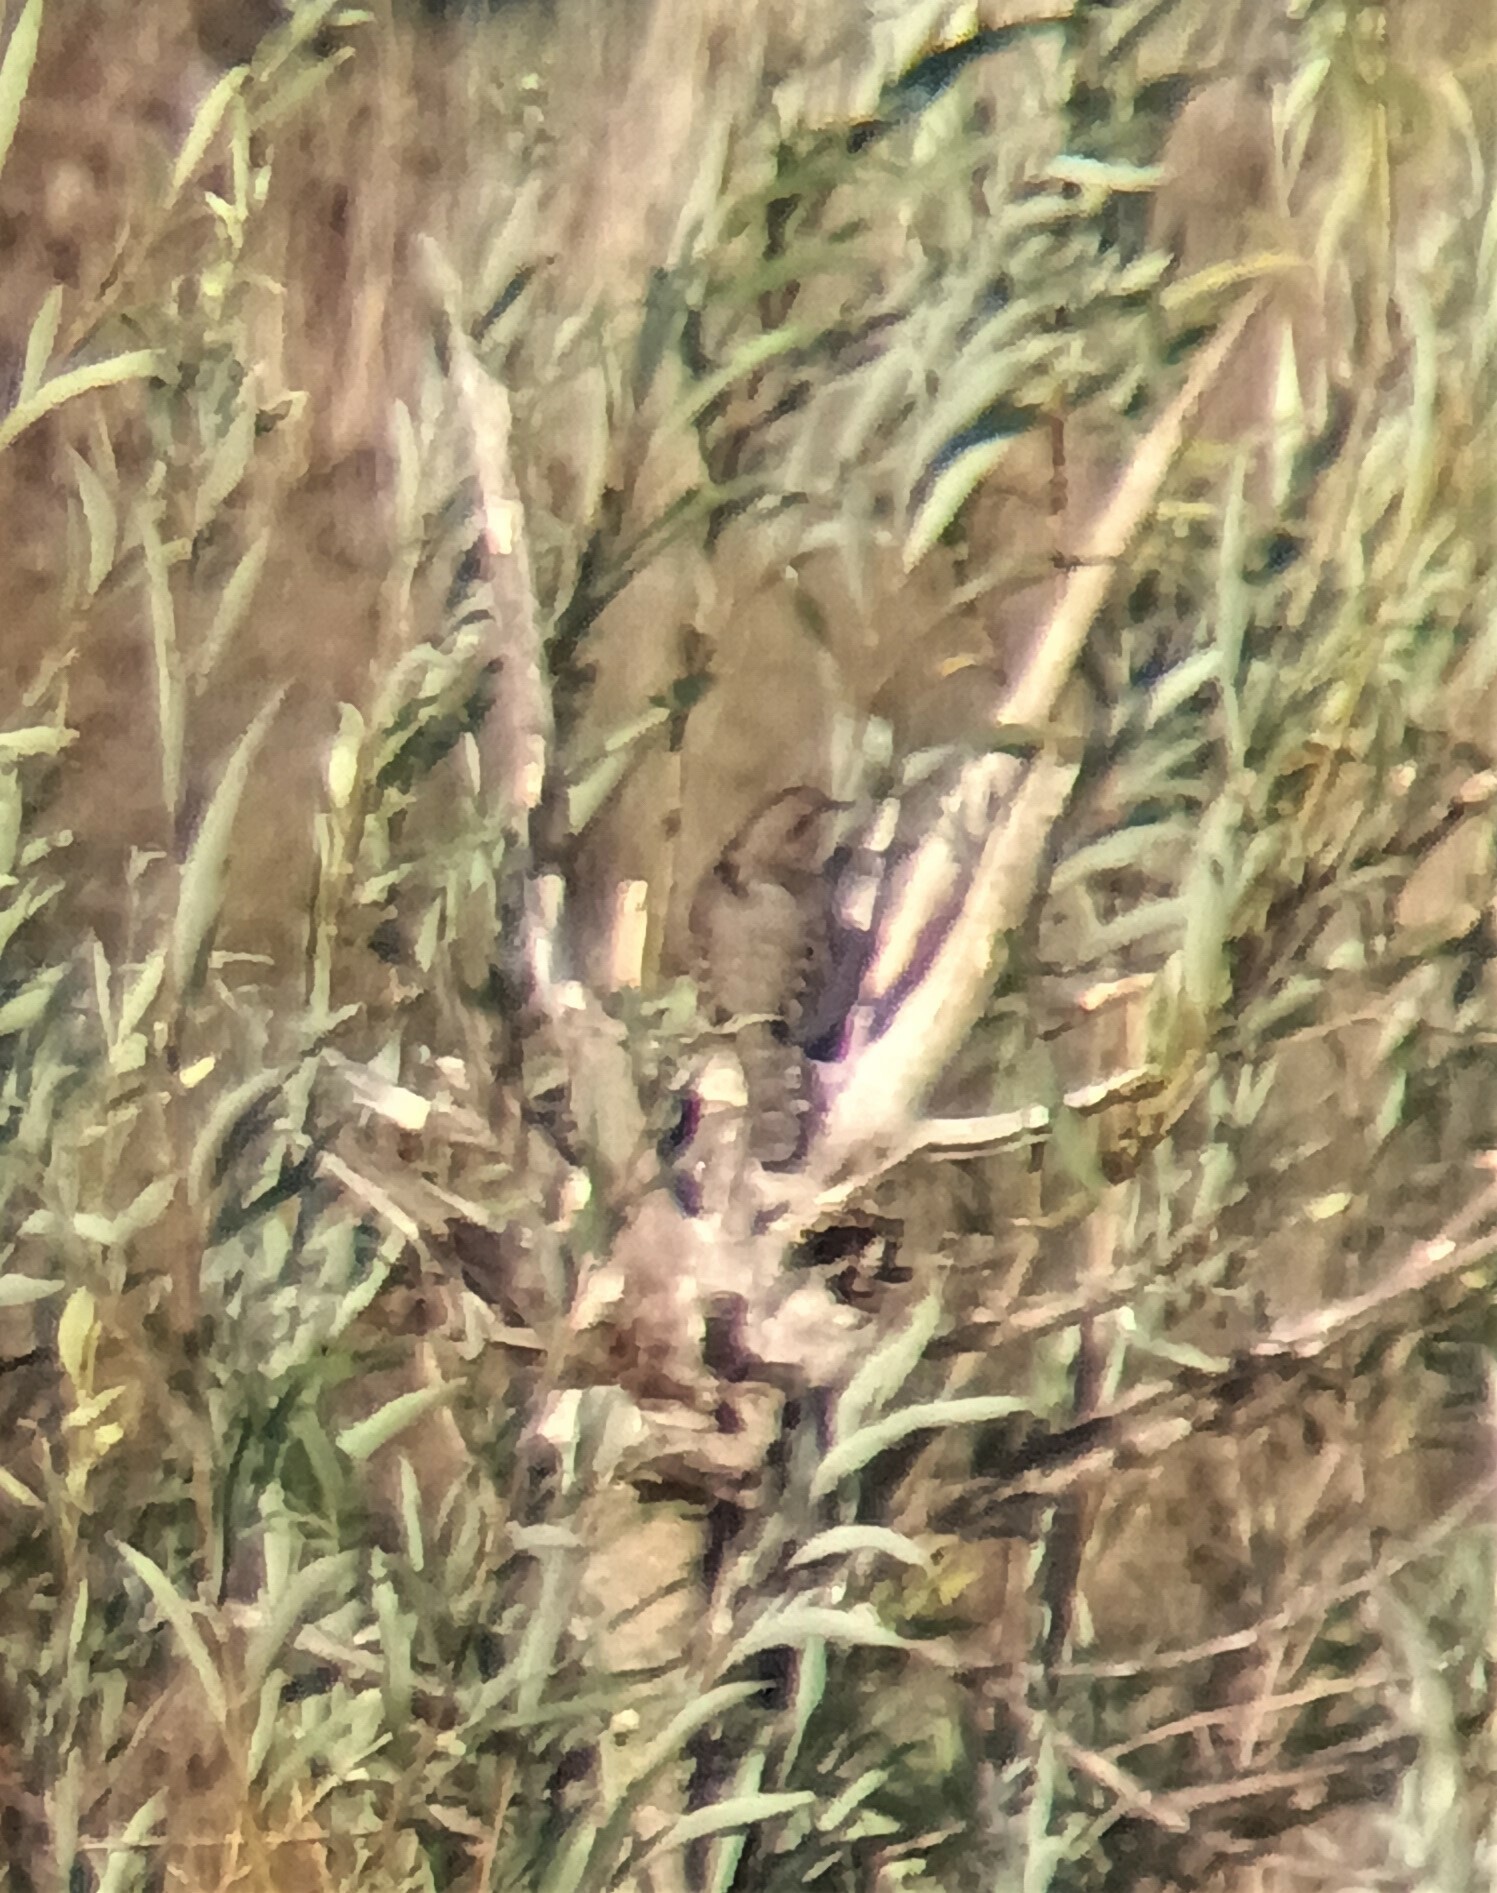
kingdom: Animalia
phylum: Chordata
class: Aves
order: Piciformes
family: Picidae
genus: Jynx
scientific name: Jynx torquilla
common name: Eurasian wryneck
